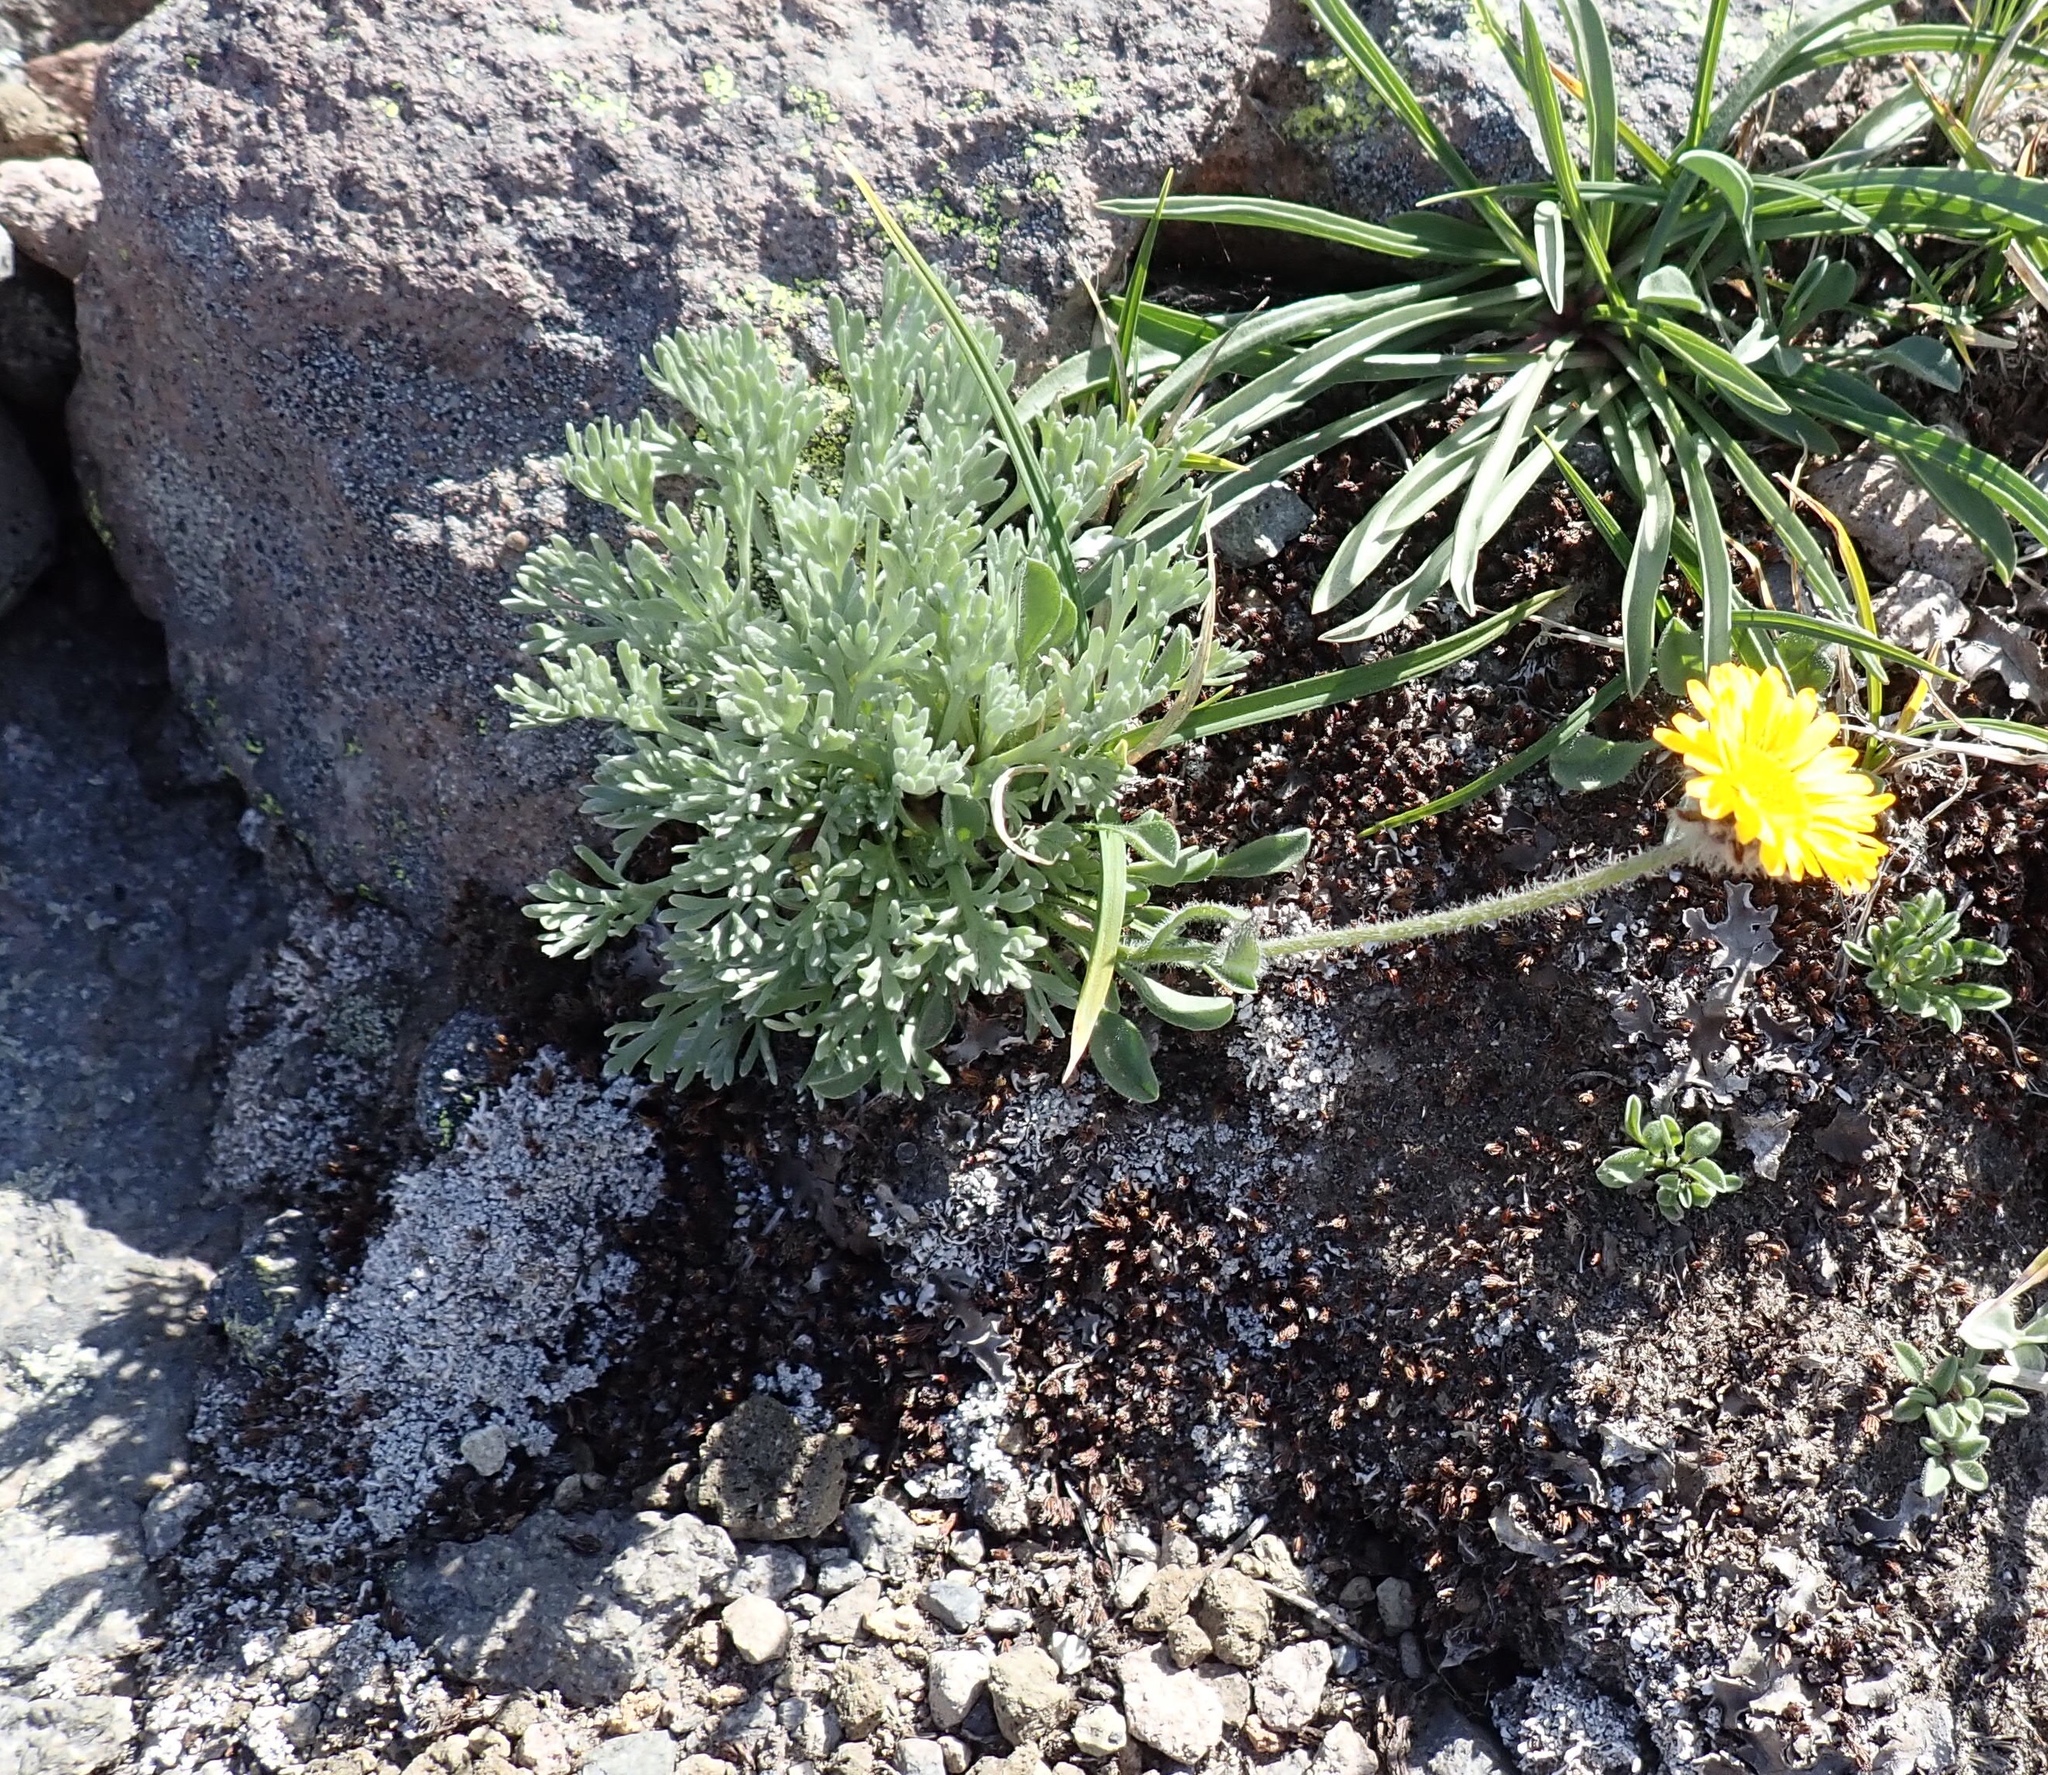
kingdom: Plantae
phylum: Tracheophyta
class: Magnoliopsida
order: Asterales
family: Asteraceae
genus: Erigeron
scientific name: Erigeron aureus
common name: Alpine yellow fleabane
